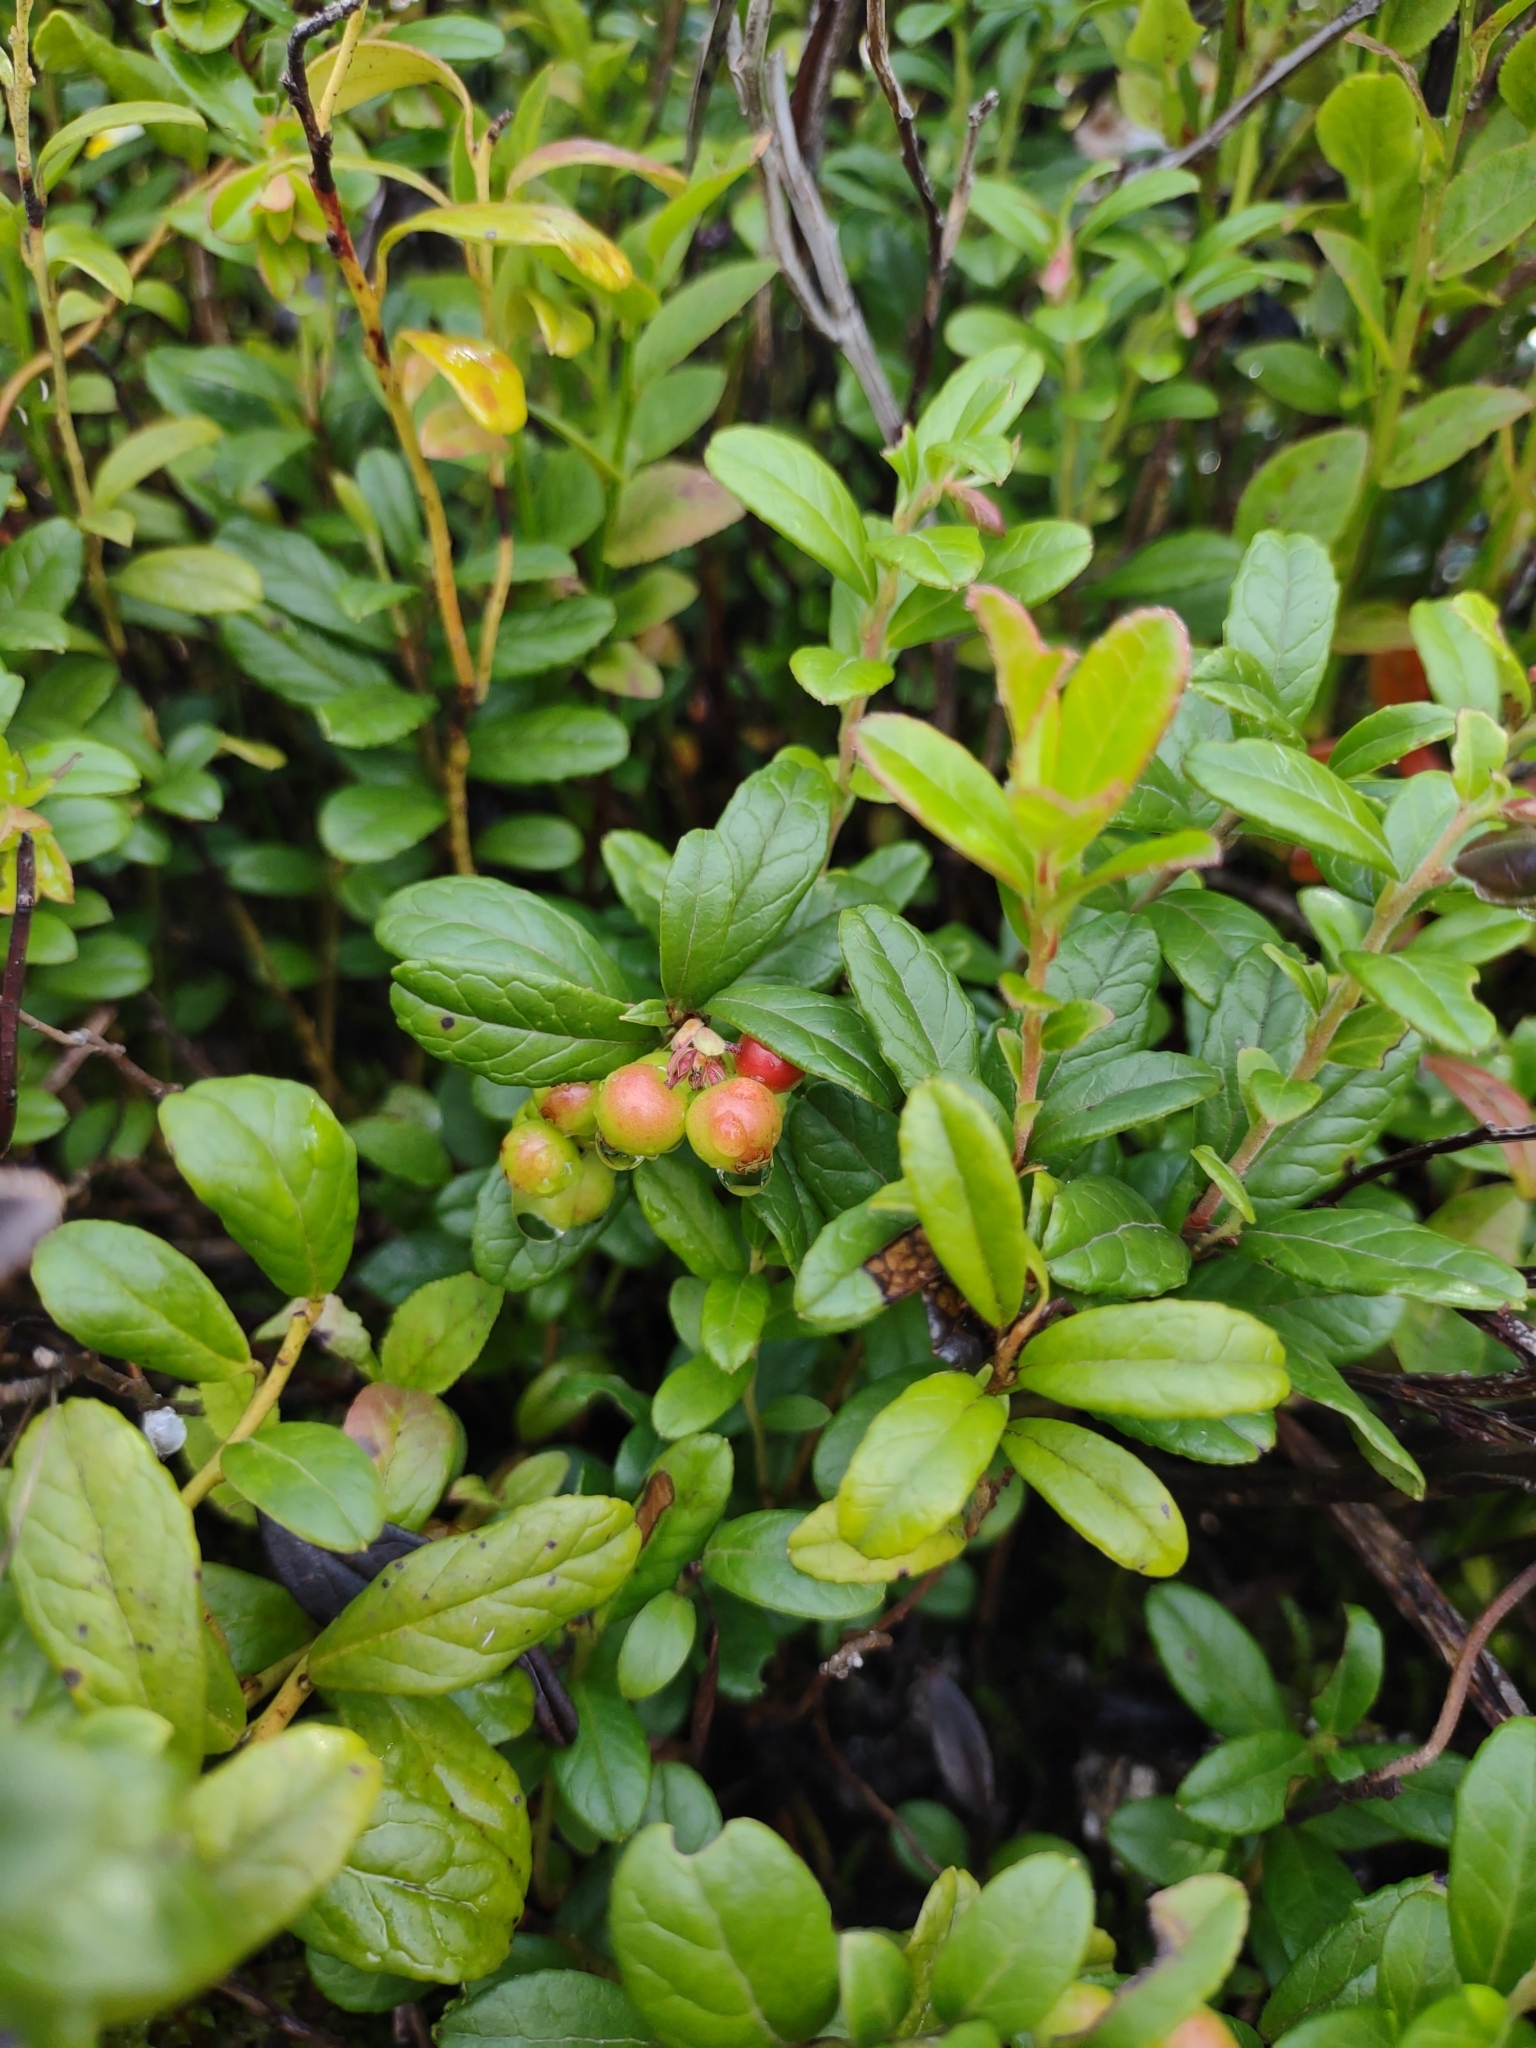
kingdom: Plantae
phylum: Tracheophyta
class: Magnoliopsida
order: Ericales
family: Ericaceae
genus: Vaccinium
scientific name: Vaccinium vitis-idaea
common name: Cowberry
